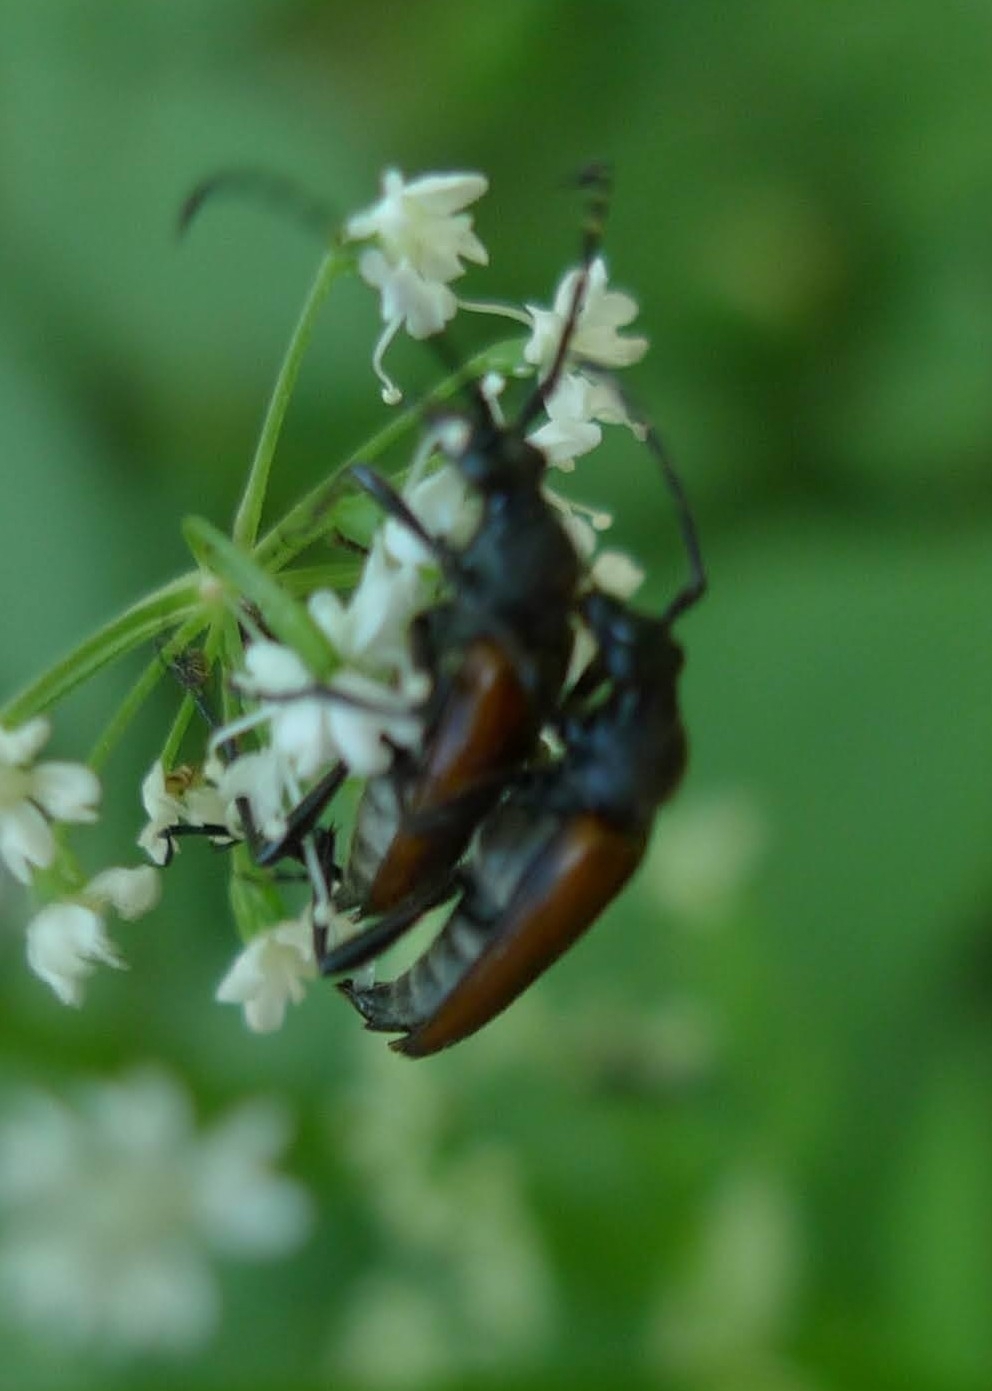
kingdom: Animalia
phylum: Arthropoda
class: Insecta
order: Coleoptera
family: Cerambycidae
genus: Paracorymbia
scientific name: Paracorymbia maculicornis
